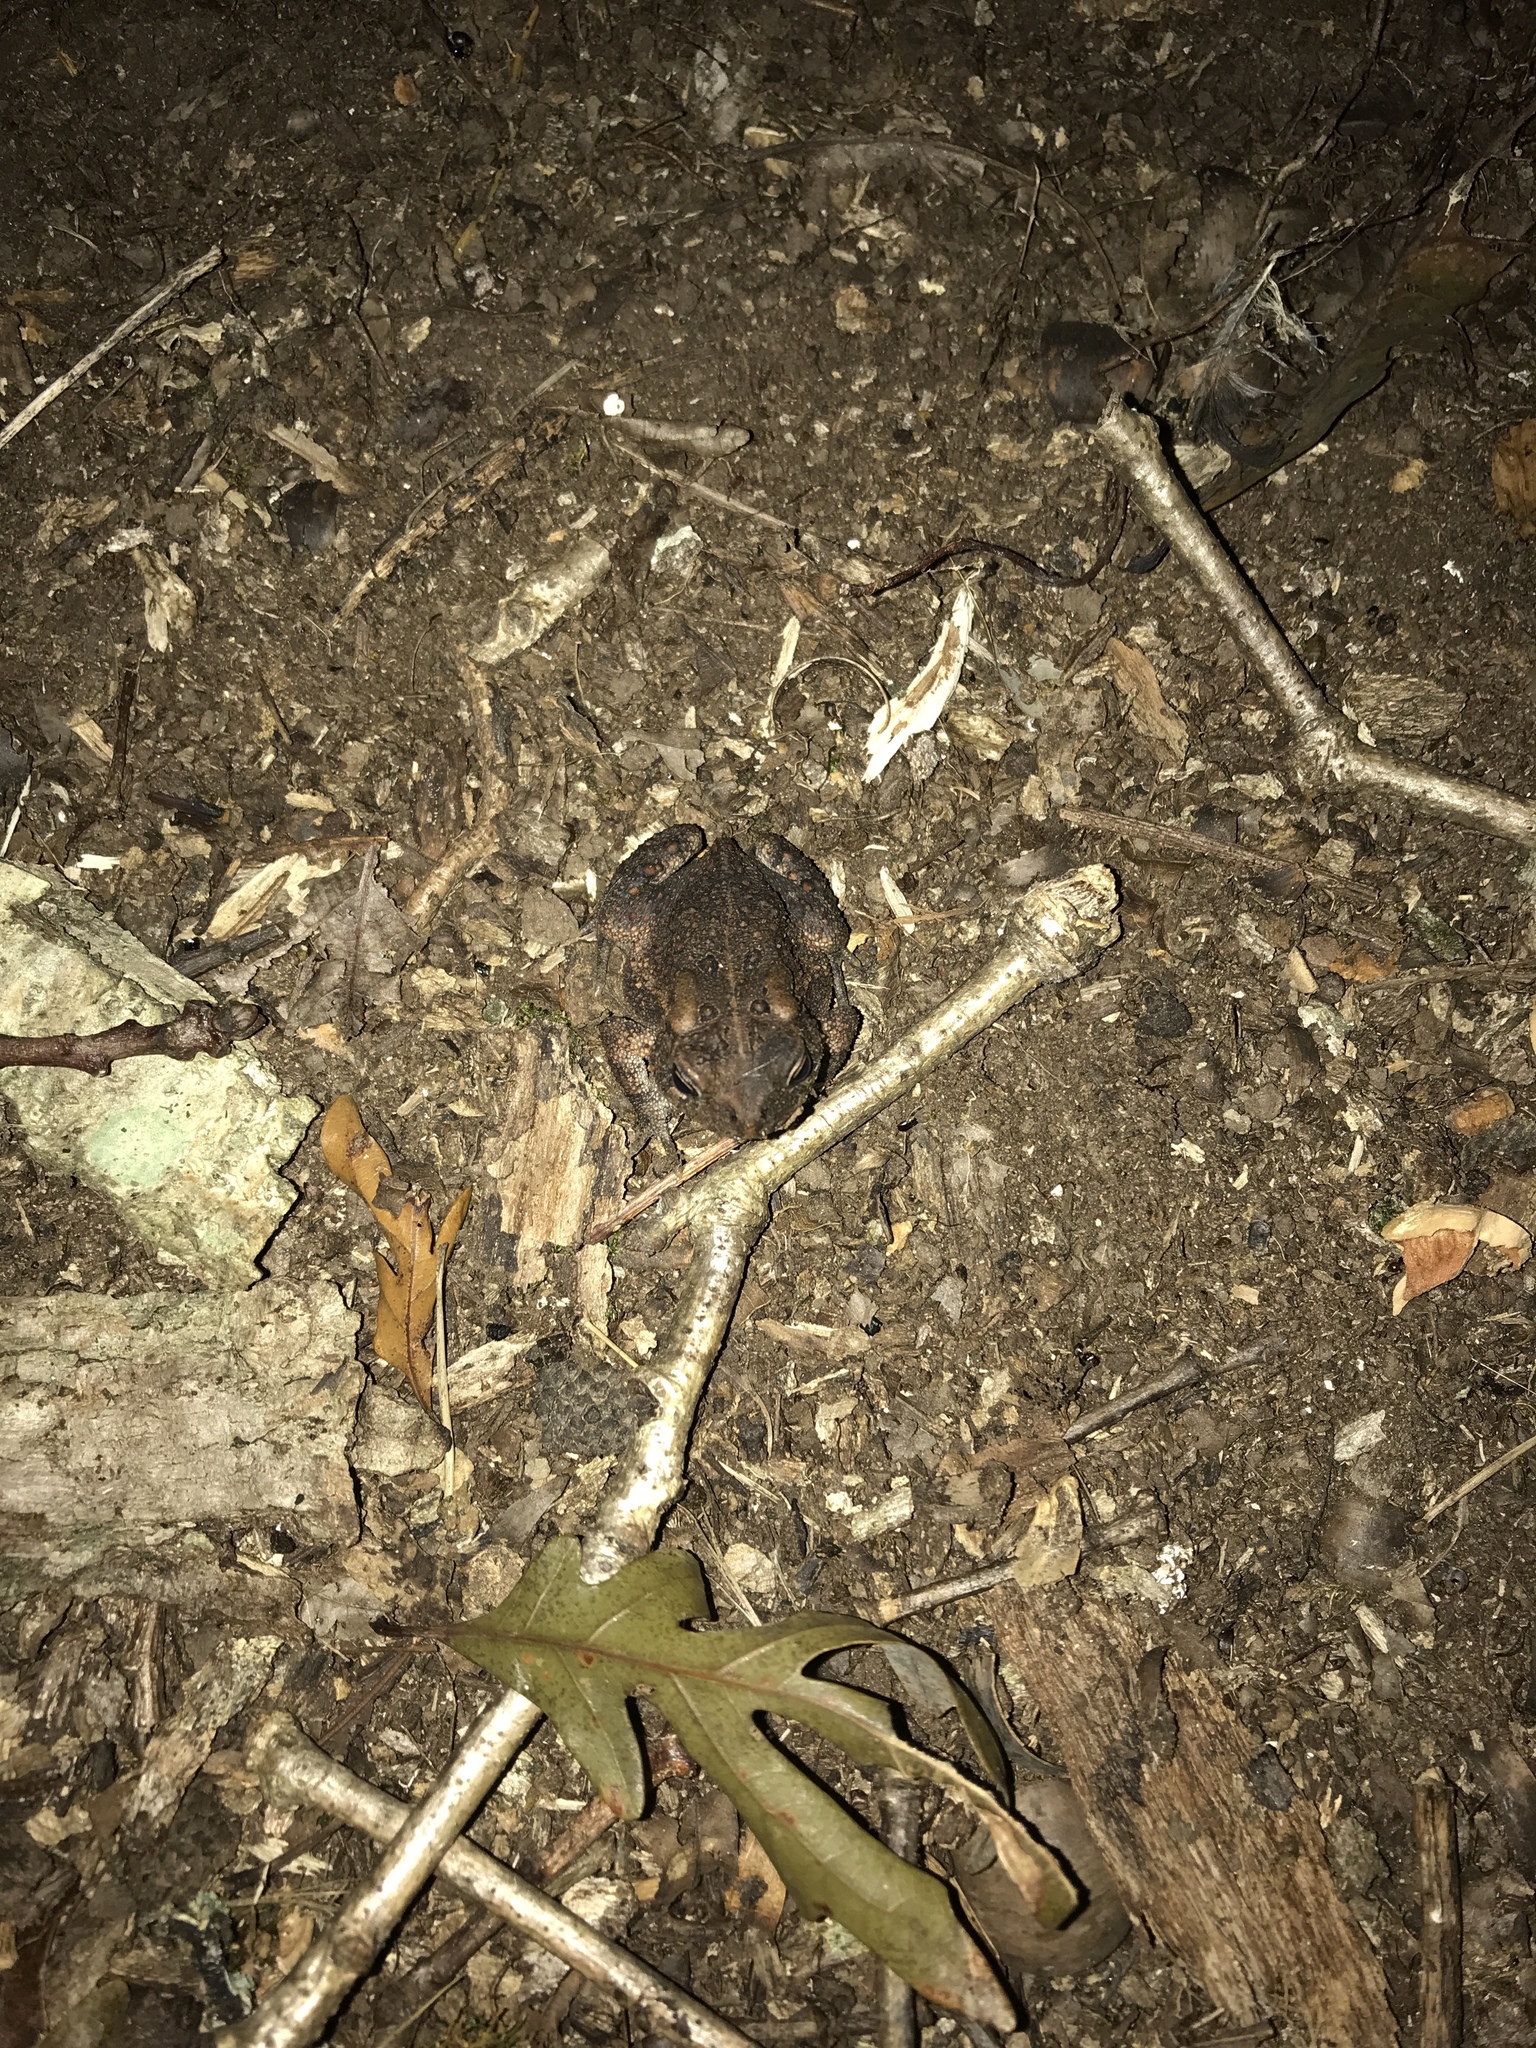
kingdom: Animalia
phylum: Chordata
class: Amphibia
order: Anura
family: Bufonidae
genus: Anaxyrus
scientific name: Anaxyrus americanus
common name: American toad
